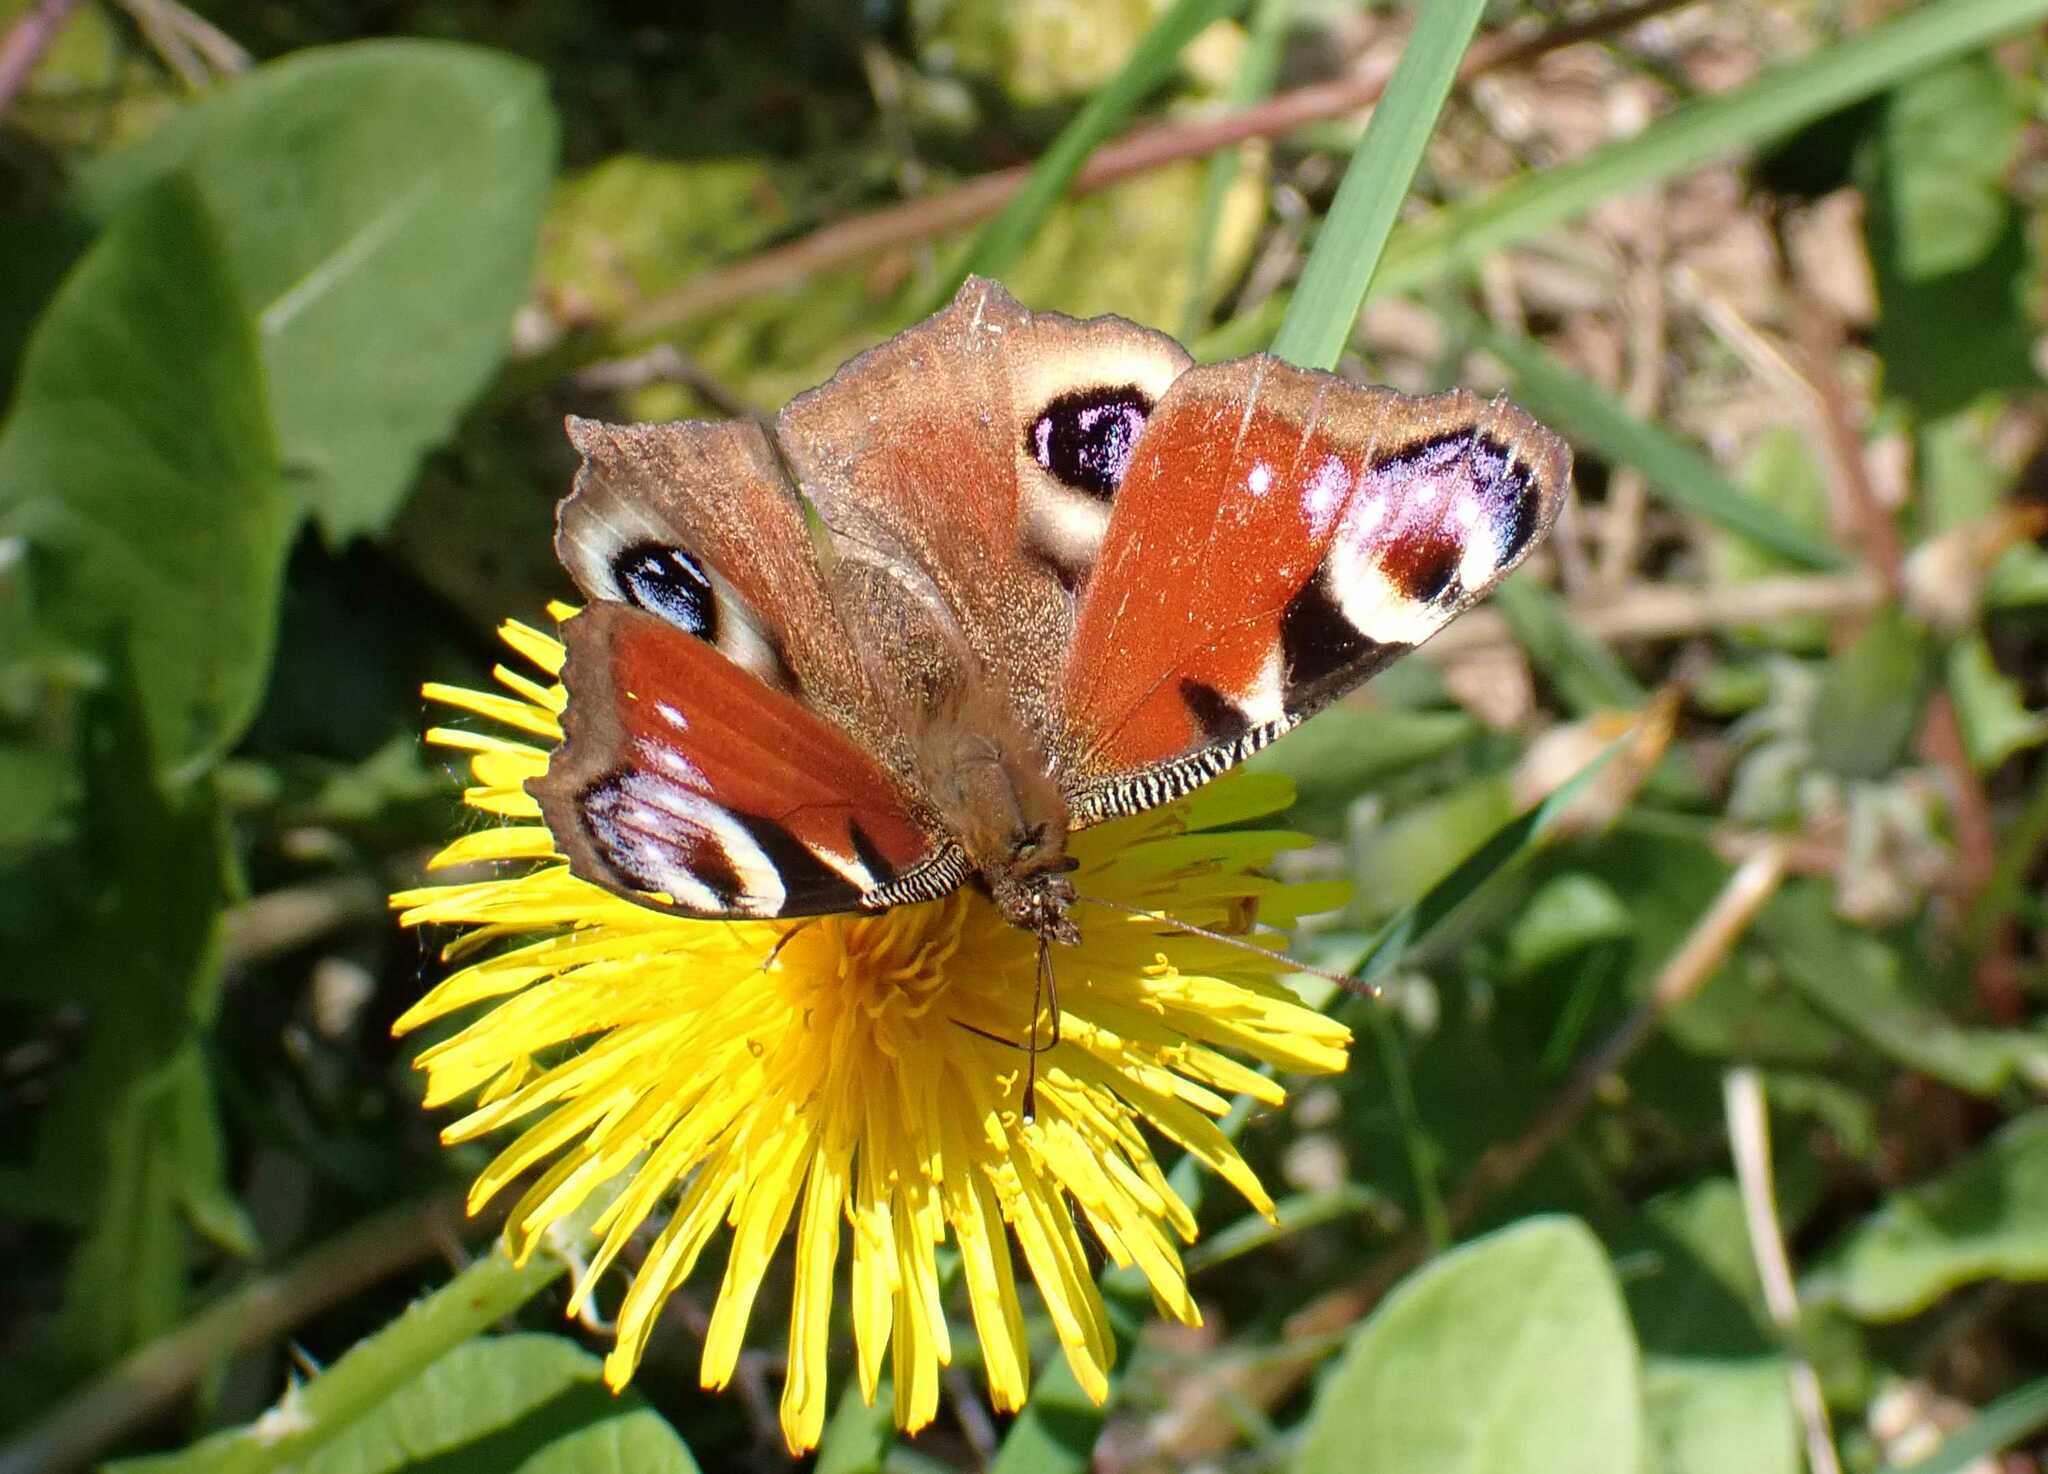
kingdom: Animalia
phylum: Arthropoda
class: Insecta
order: Lepidoptera
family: Nymphalidae
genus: Aglais
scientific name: Aglais io
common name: Peacock
